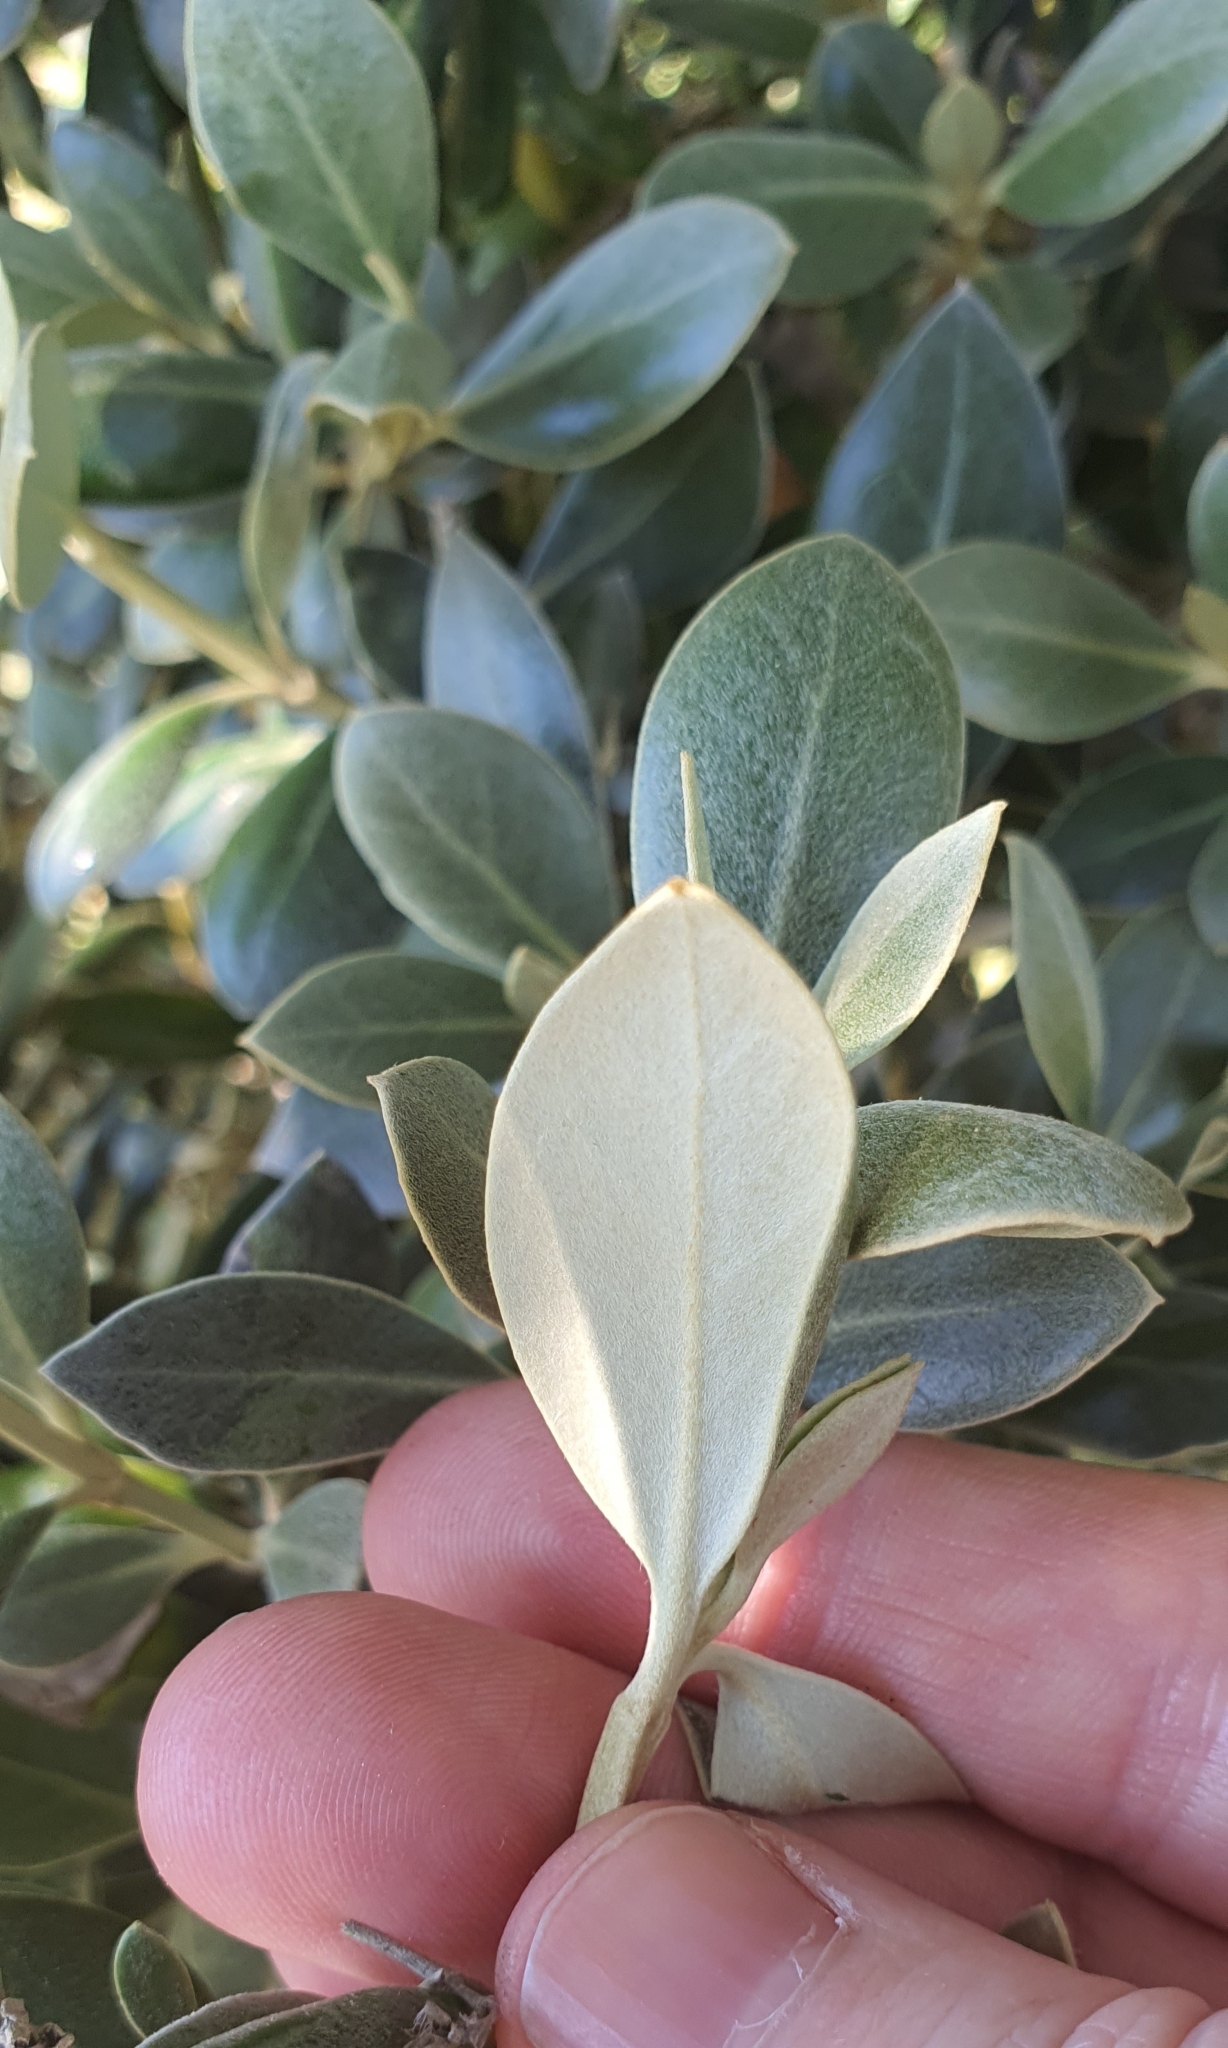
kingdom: Plantae
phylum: Tracheophyta
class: Magnoliopsida
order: Asterales
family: Asteraceae
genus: Olearia
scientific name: Olearia traversiorum
